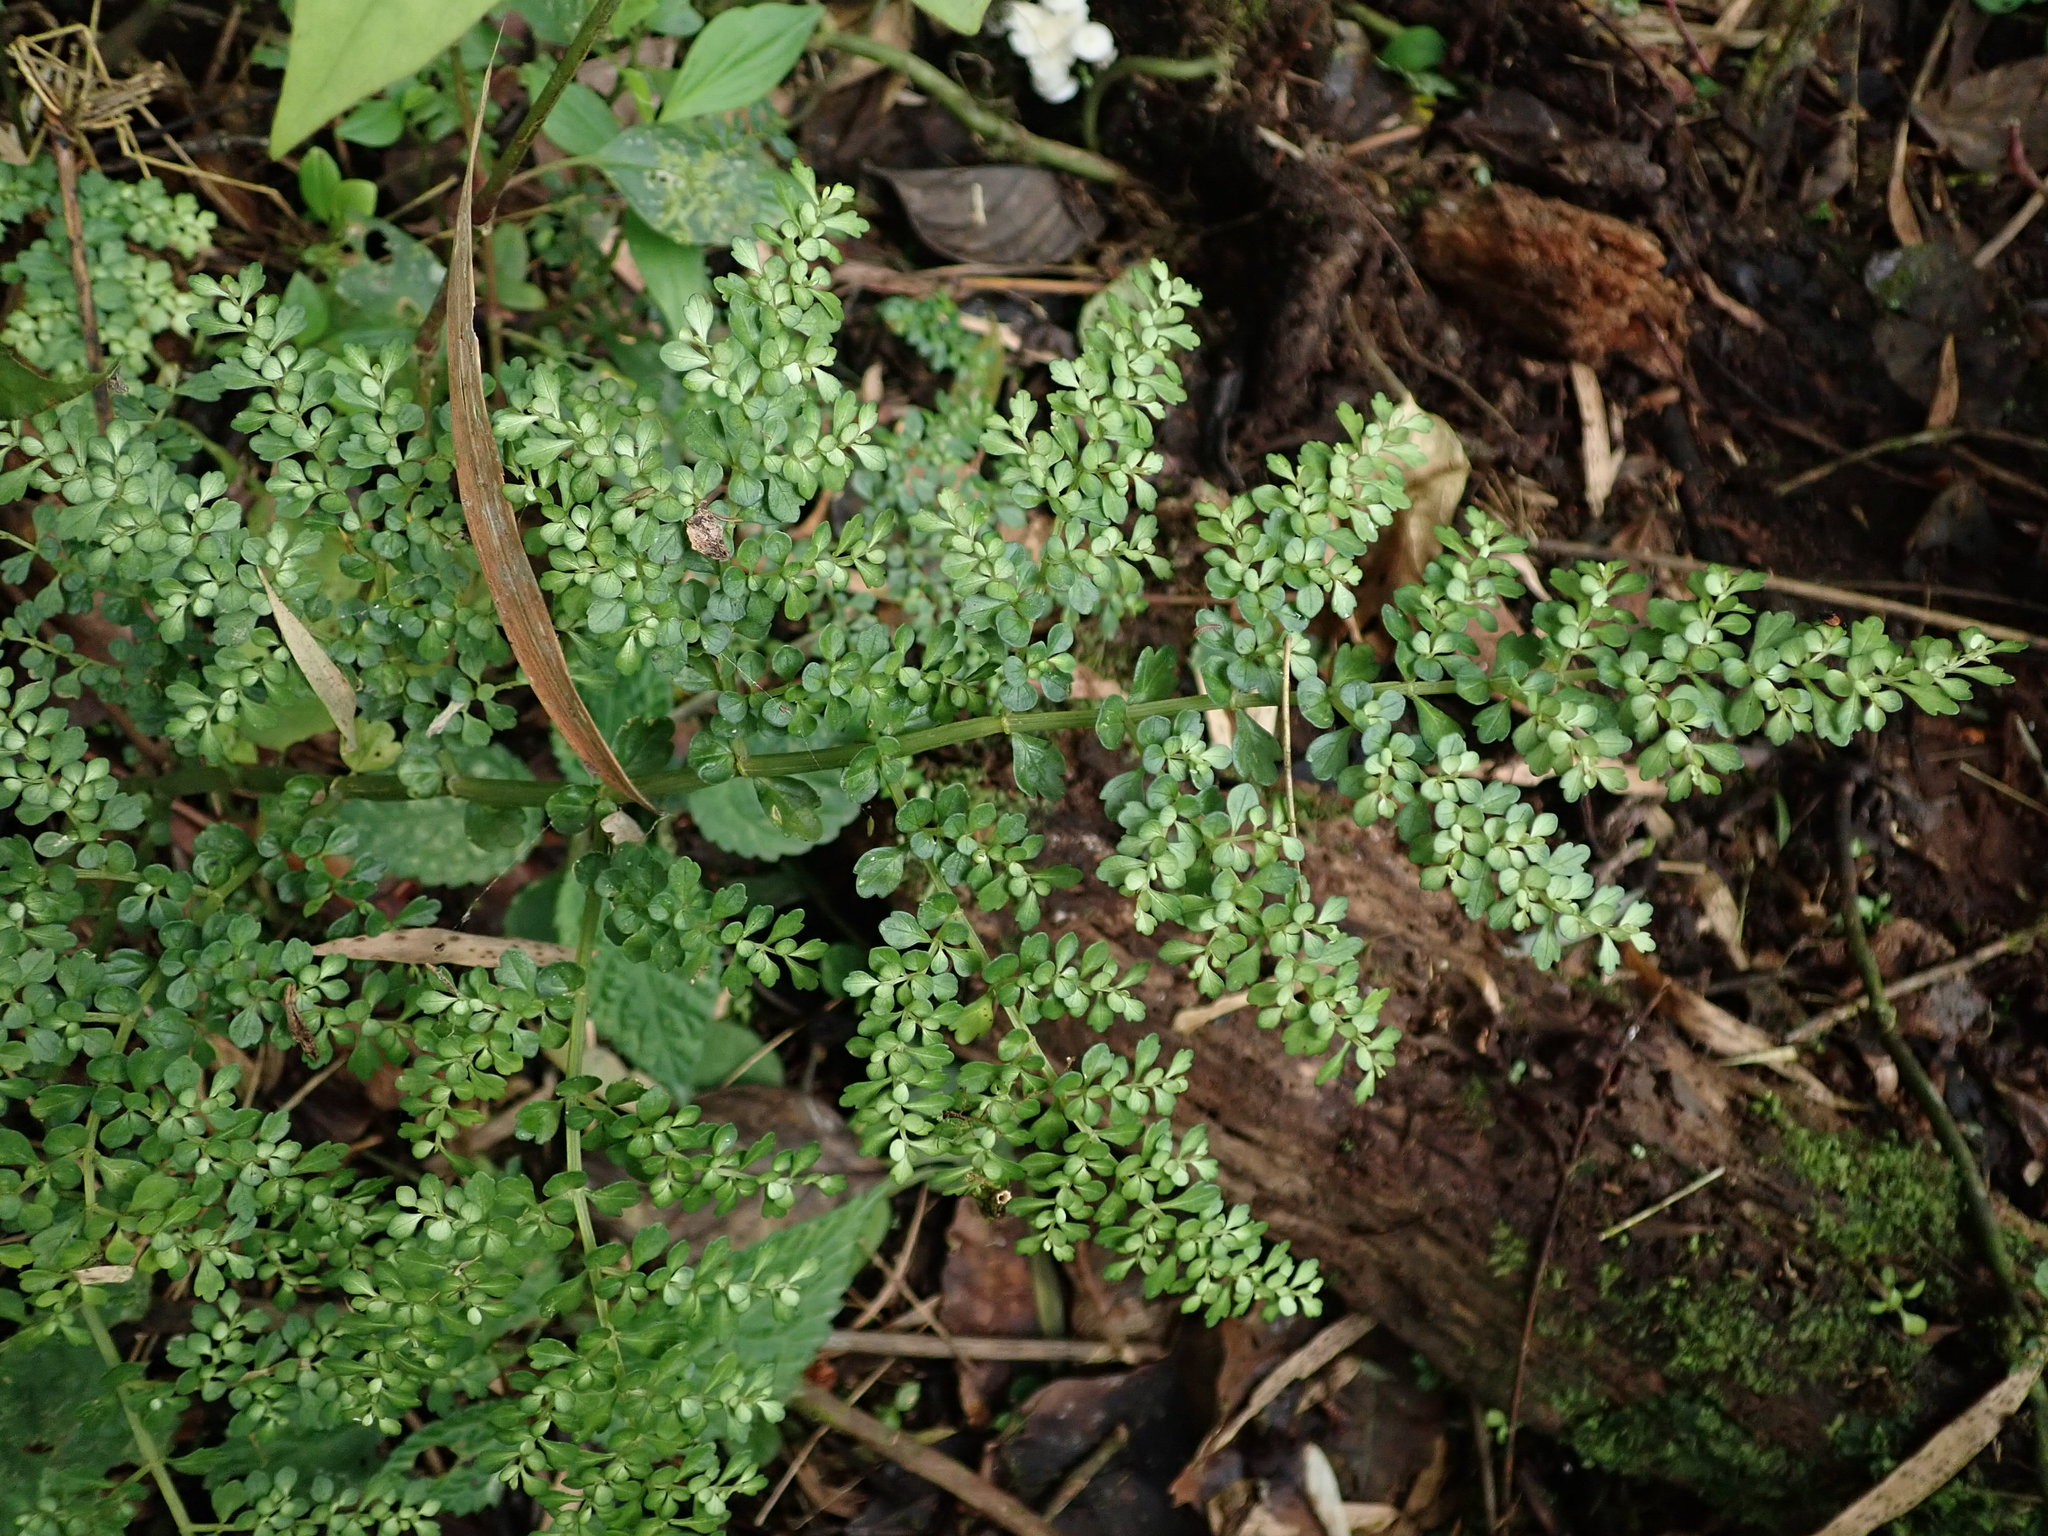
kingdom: Plantae
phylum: Tracheophyta
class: Magnoliopsida
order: Rosales
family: Urticaceae
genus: Pilea
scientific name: Pilea myriophylla
